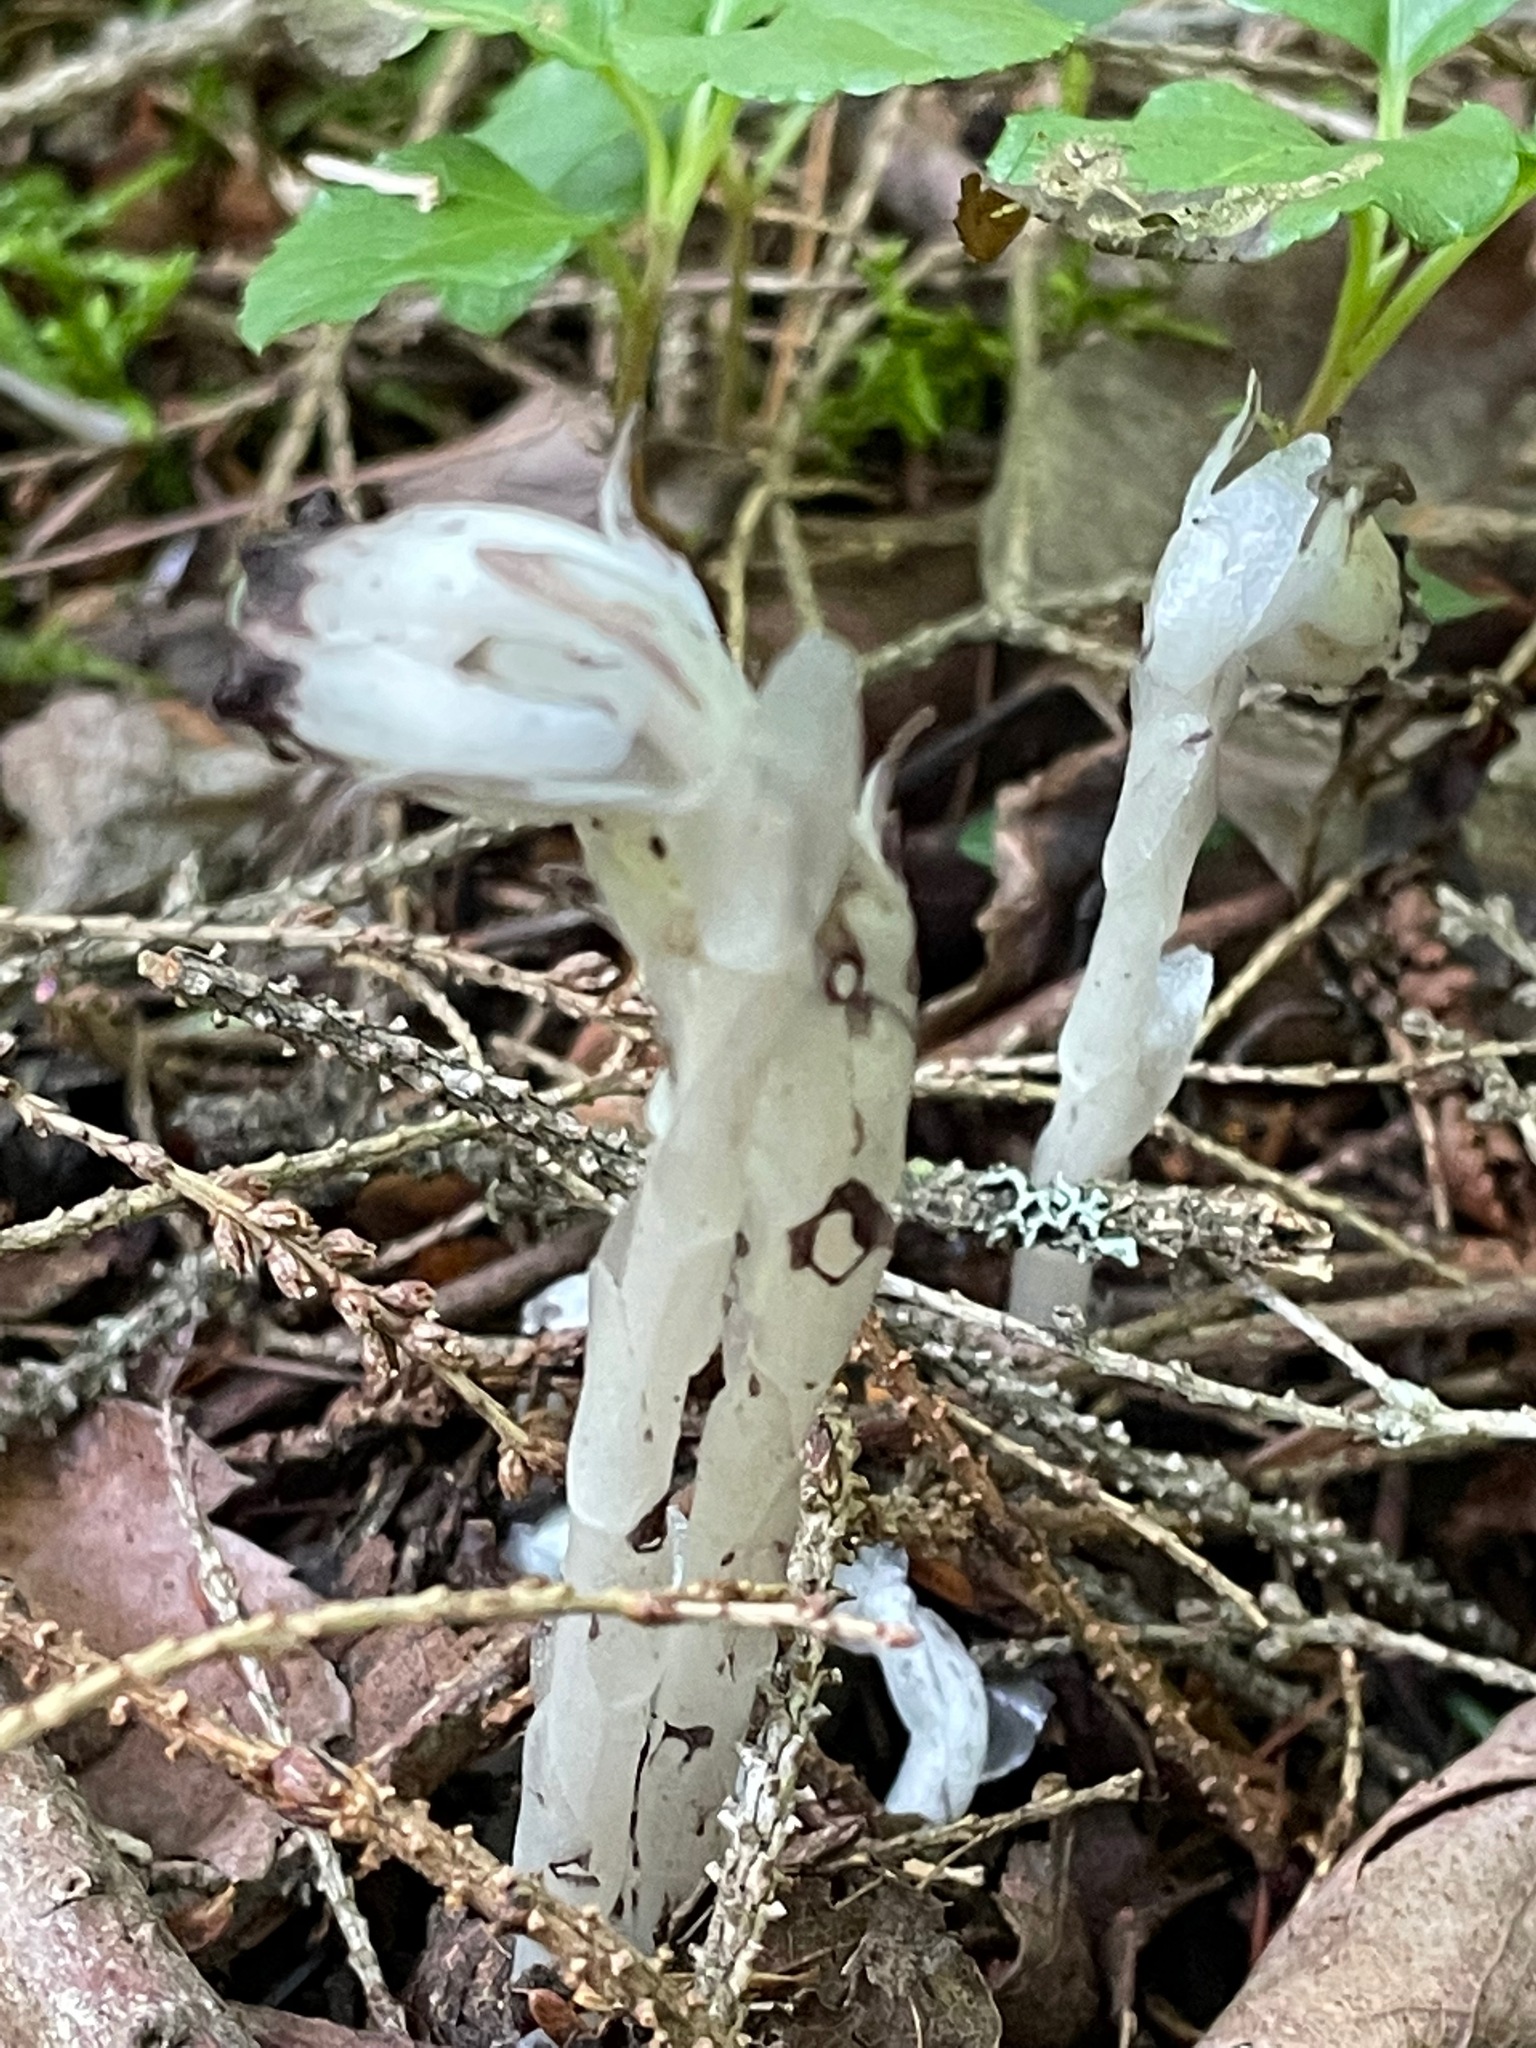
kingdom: Plantae
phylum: Tracheophyta
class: Magnoliopsida
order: Ericales
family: Ericaceae
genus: Monotropa
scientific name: Monotropa uniflora
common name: Convulsion root
